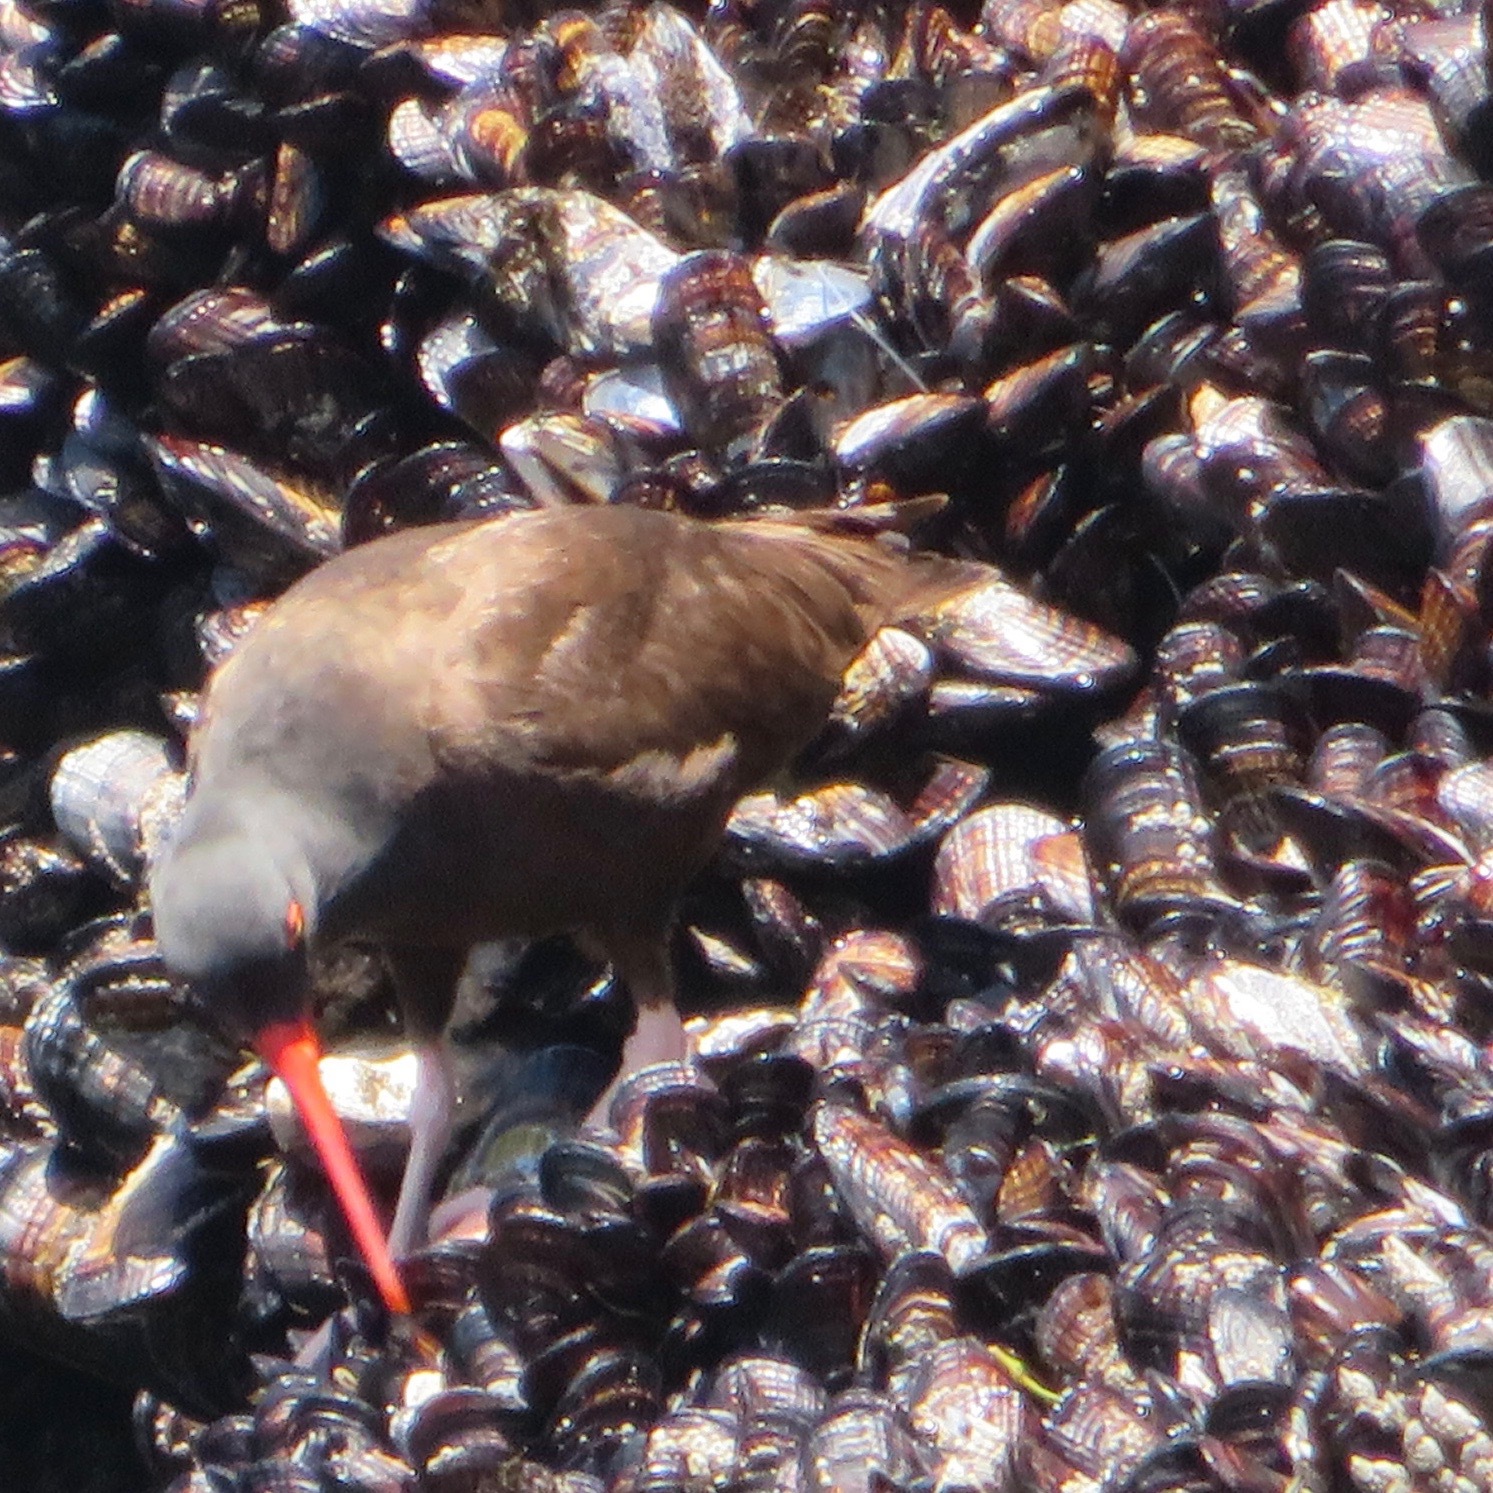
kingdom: Animalia
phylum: Chordata
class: Aves
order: Charadriiformes
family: Haematopodidae
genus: Haematopus
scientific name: Haematopus bachmani
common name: Black oystercatcher
